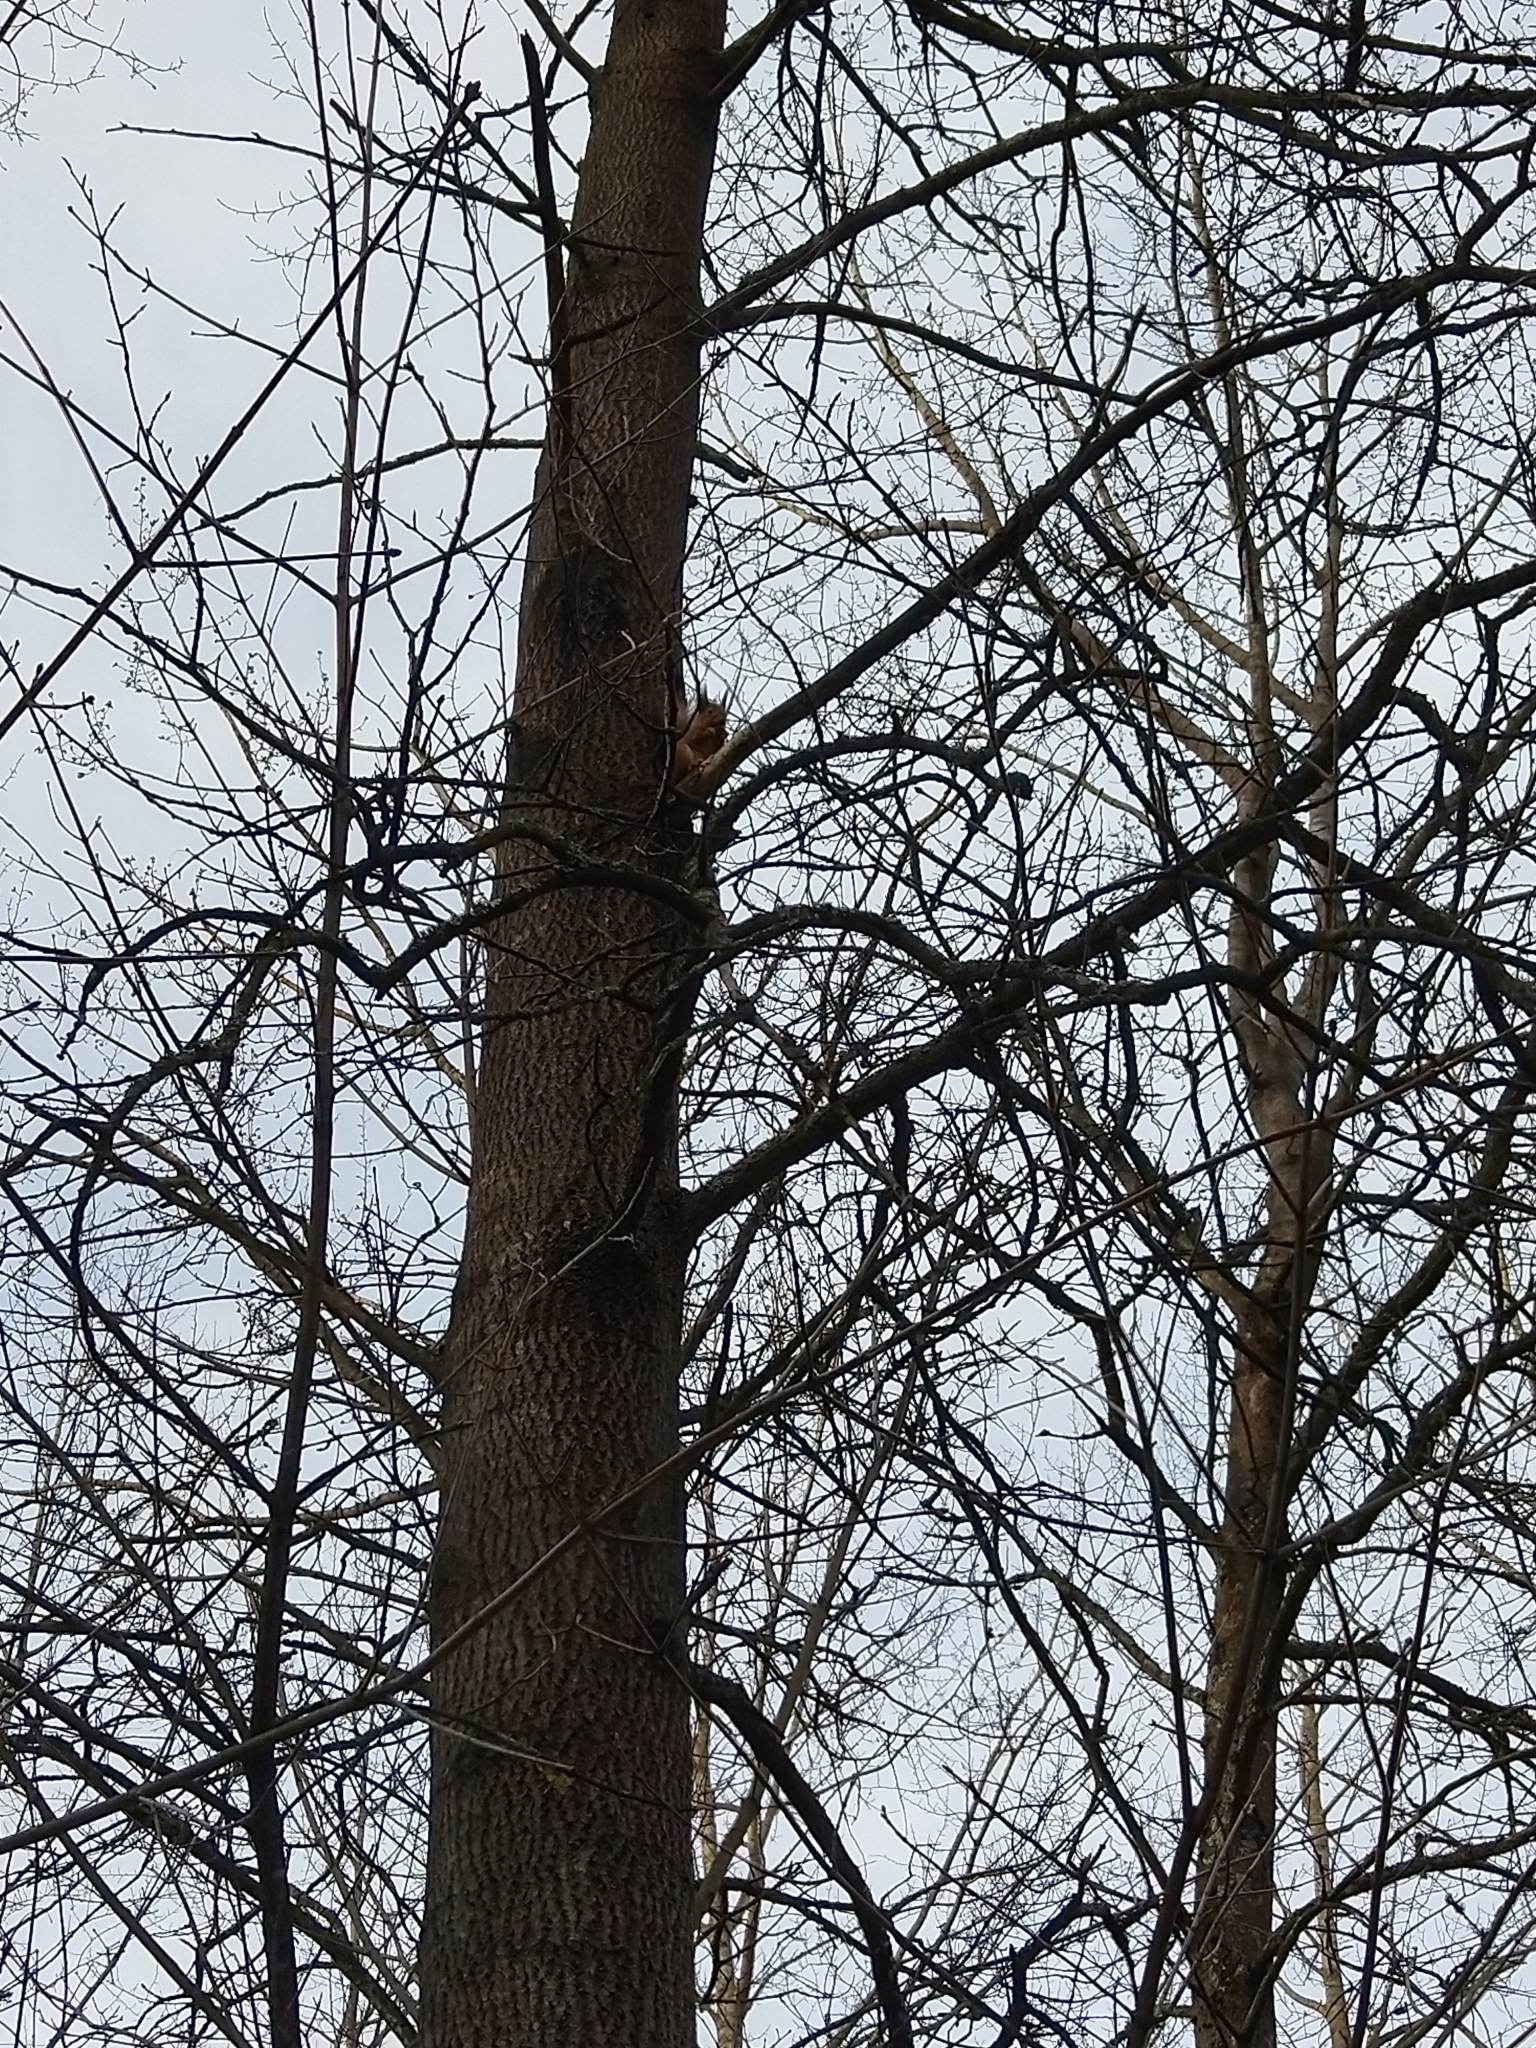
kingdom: Animalia
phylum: Chordata
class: Mammalia
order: Rodentia
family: Sciuridae
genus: Sciurus
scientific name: Sciurus vulgaris
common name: Eurasian red squirrel
